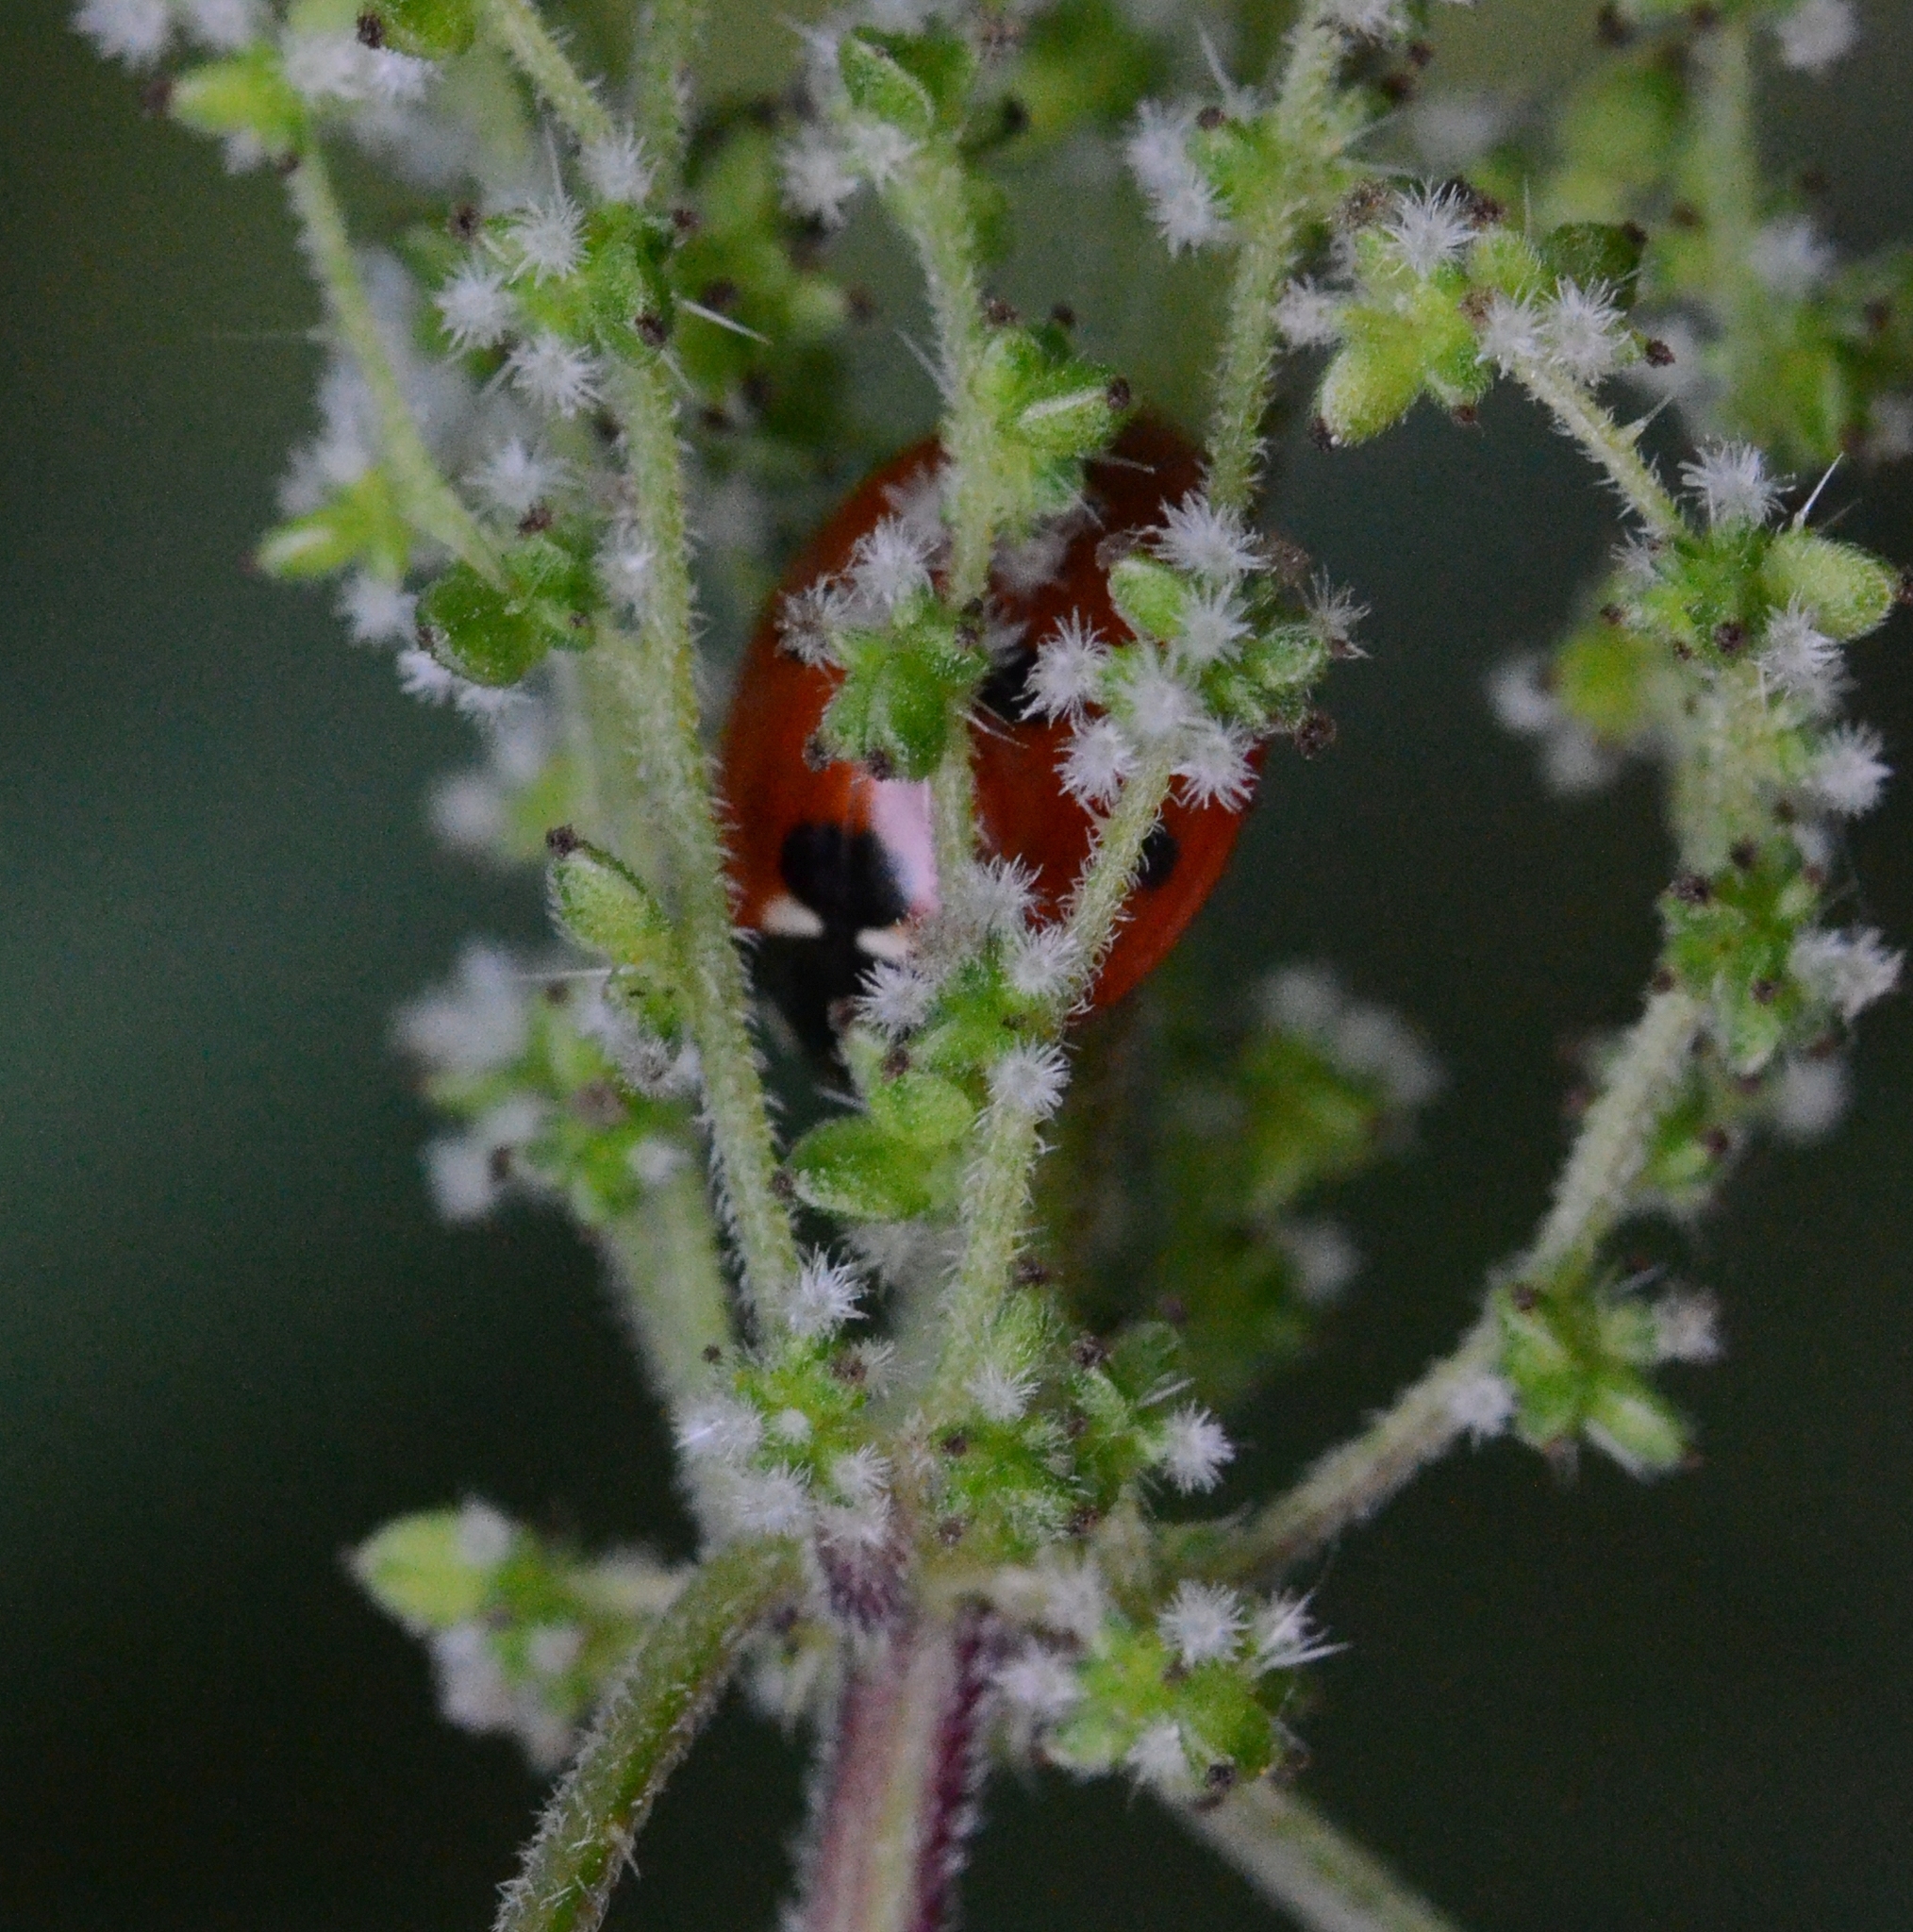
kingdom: Animalia
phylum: Arthropoda
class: Insecta
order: Coleoptera
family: Coccinellidae
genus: Coccinella
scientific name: Coccinella septempunctata
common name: Sevenspotted lady beetle
